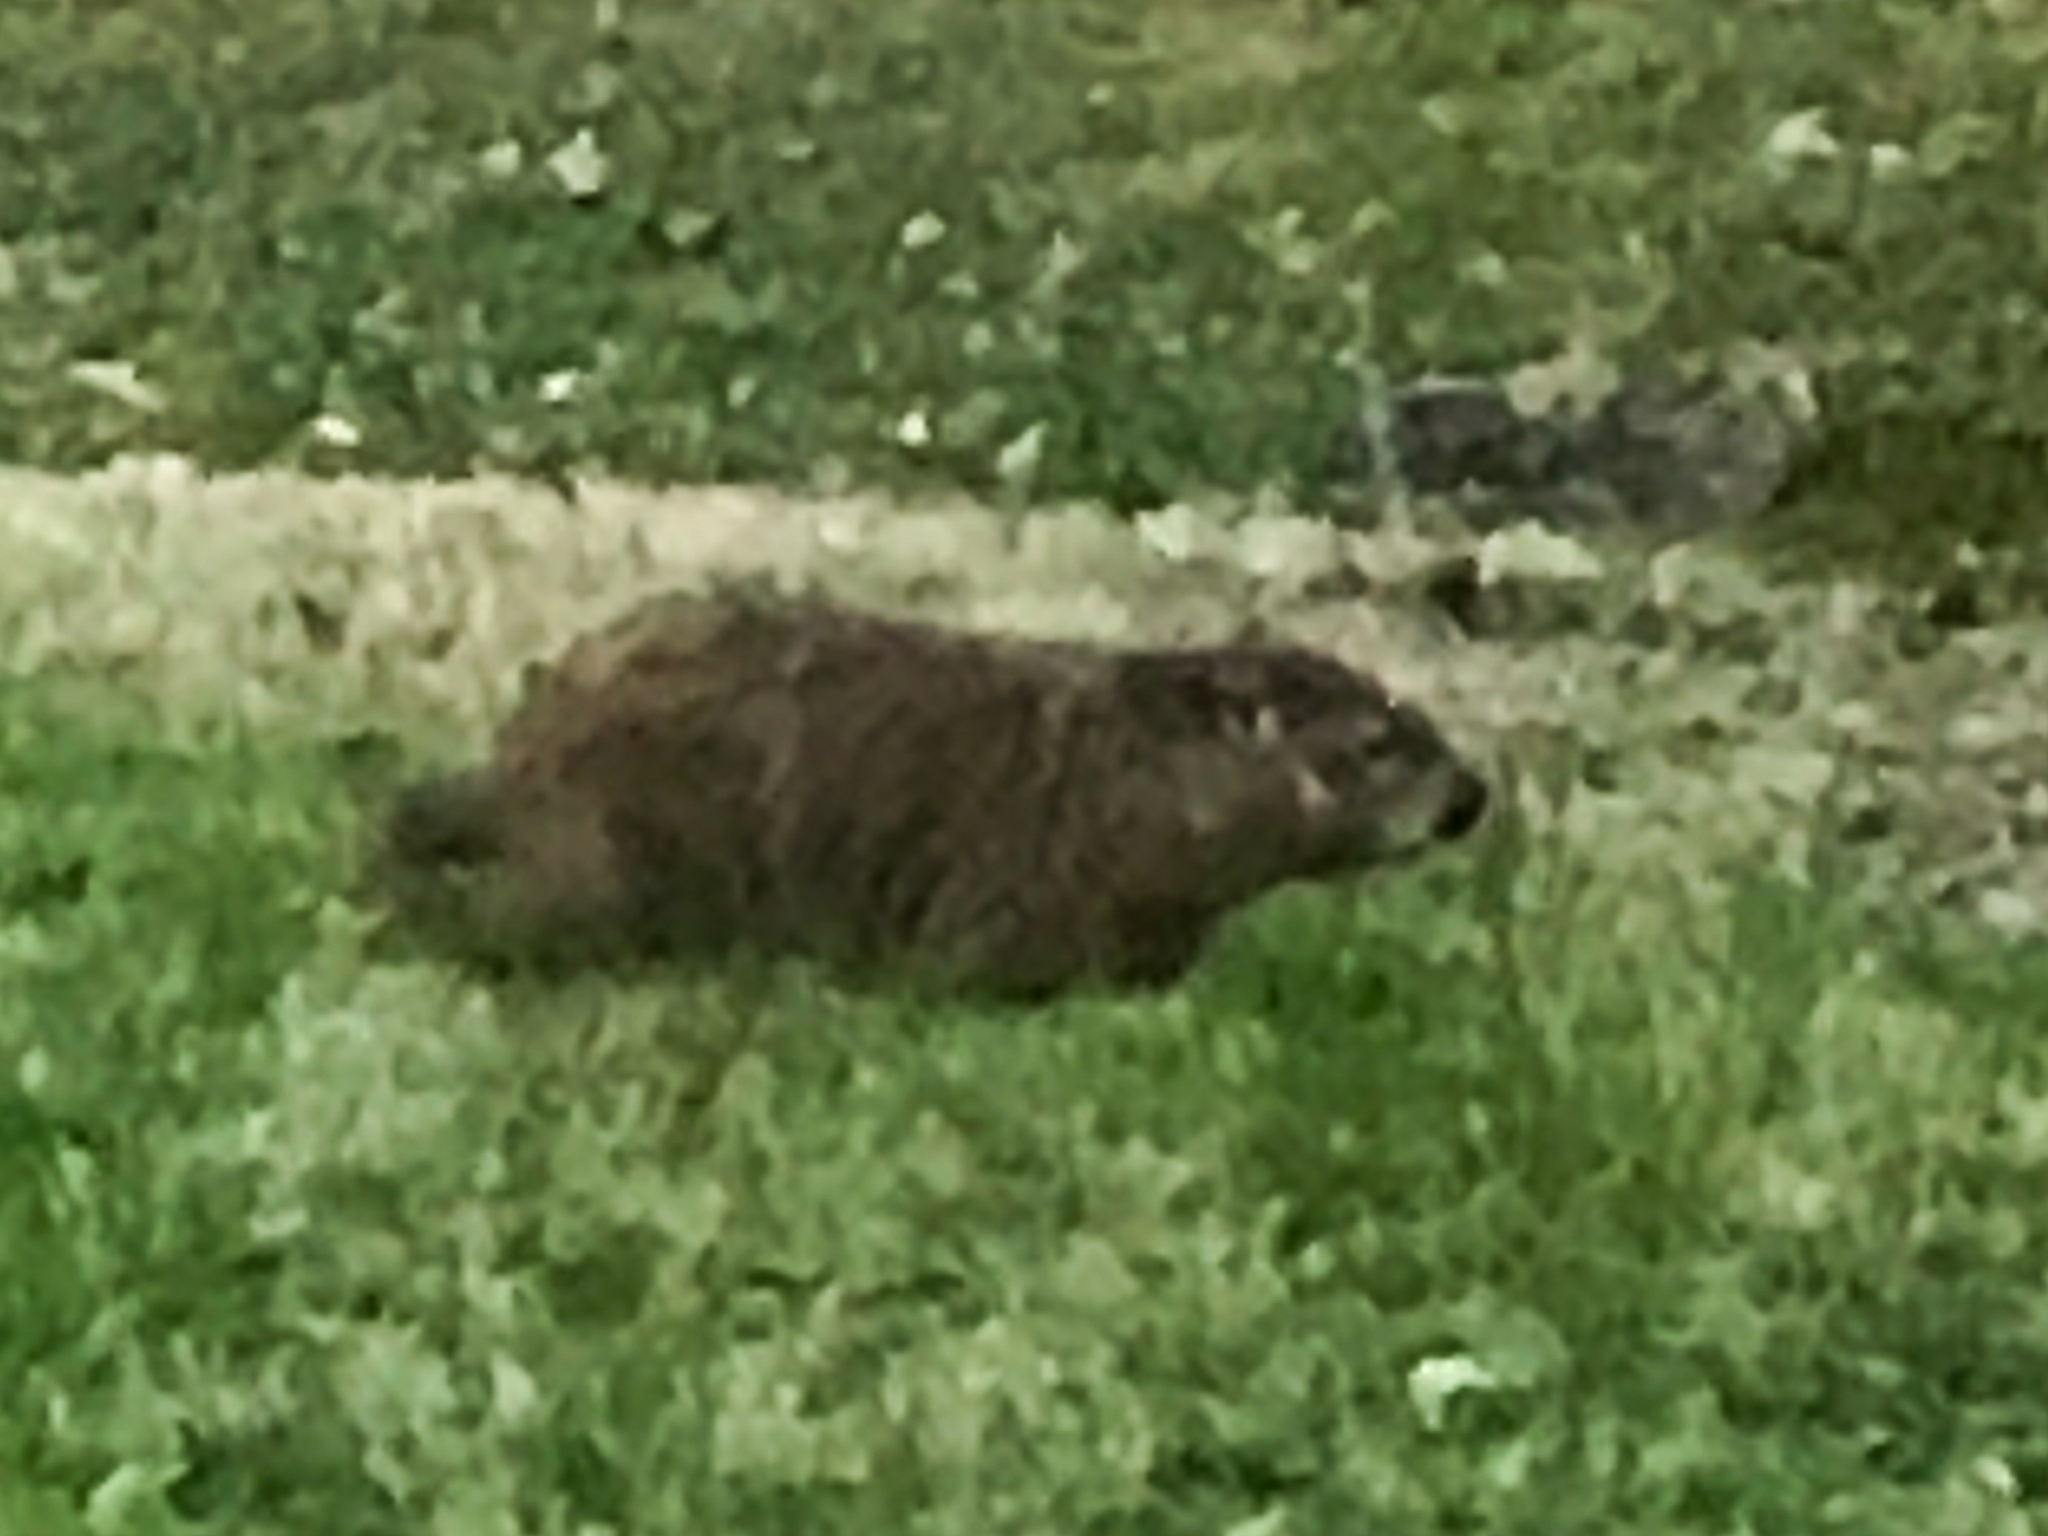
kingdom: Animalia
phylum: Chordata
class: Mammalia
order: Rodentia
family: Sciuridae
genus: Marmota
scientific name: Marmota monax
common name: Groundhog
